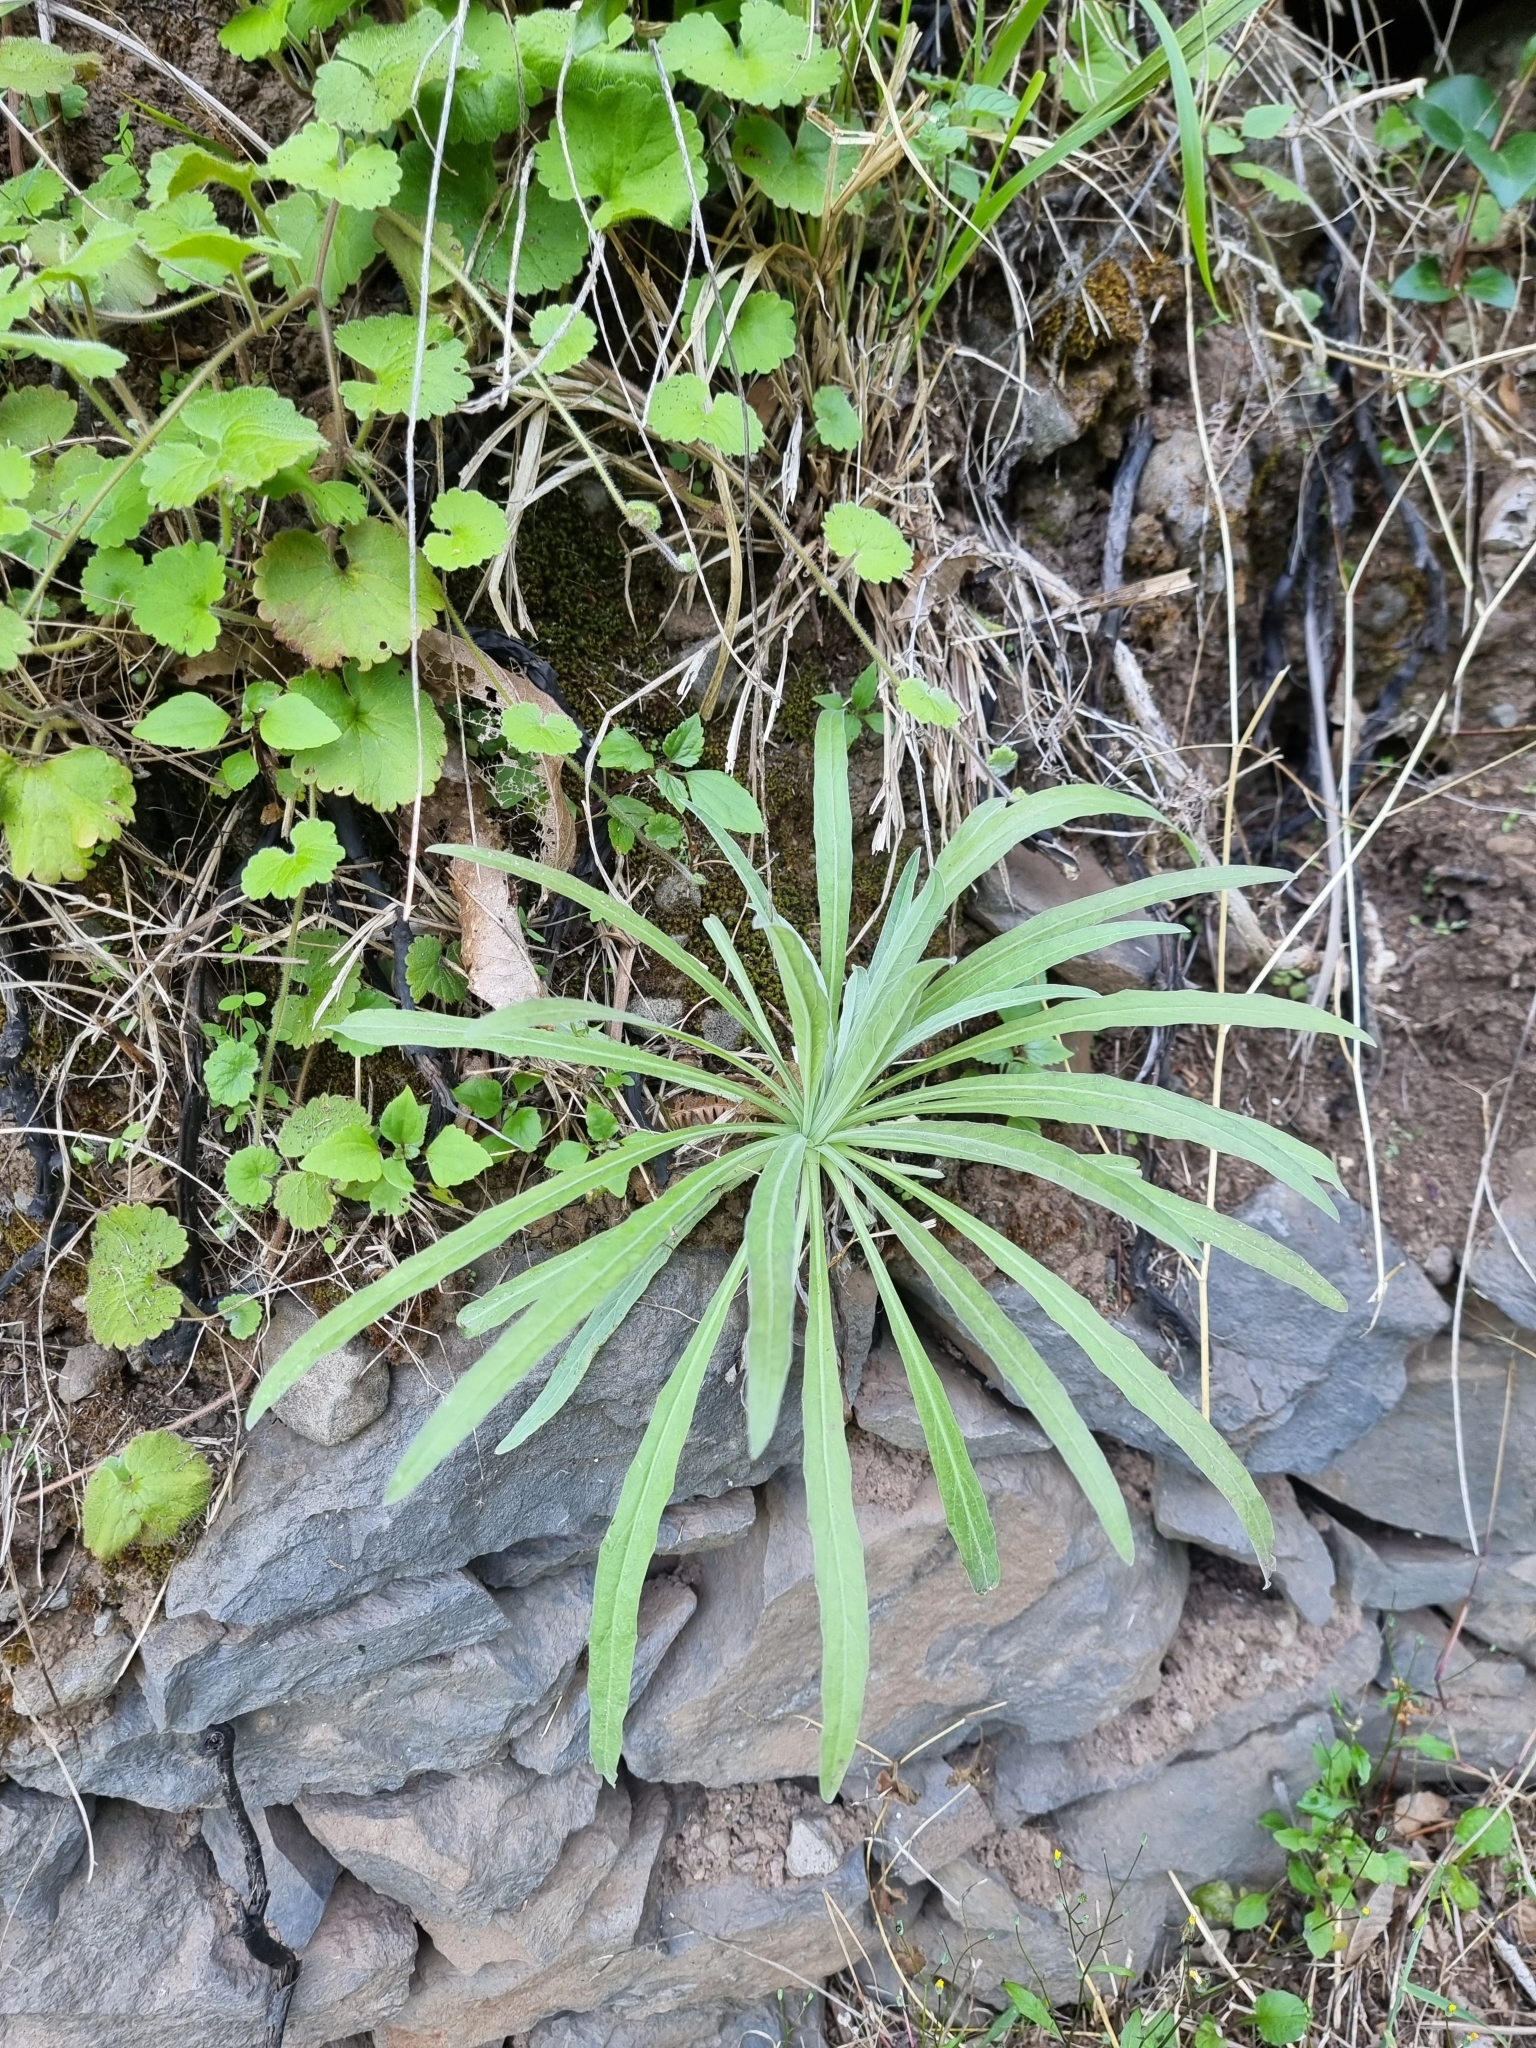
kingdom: Plantae
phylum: Tracheophyta
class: Magnoliopsida
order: Asterales
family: Asteraceae
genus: Andryala
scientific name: Andryala glandulosa
